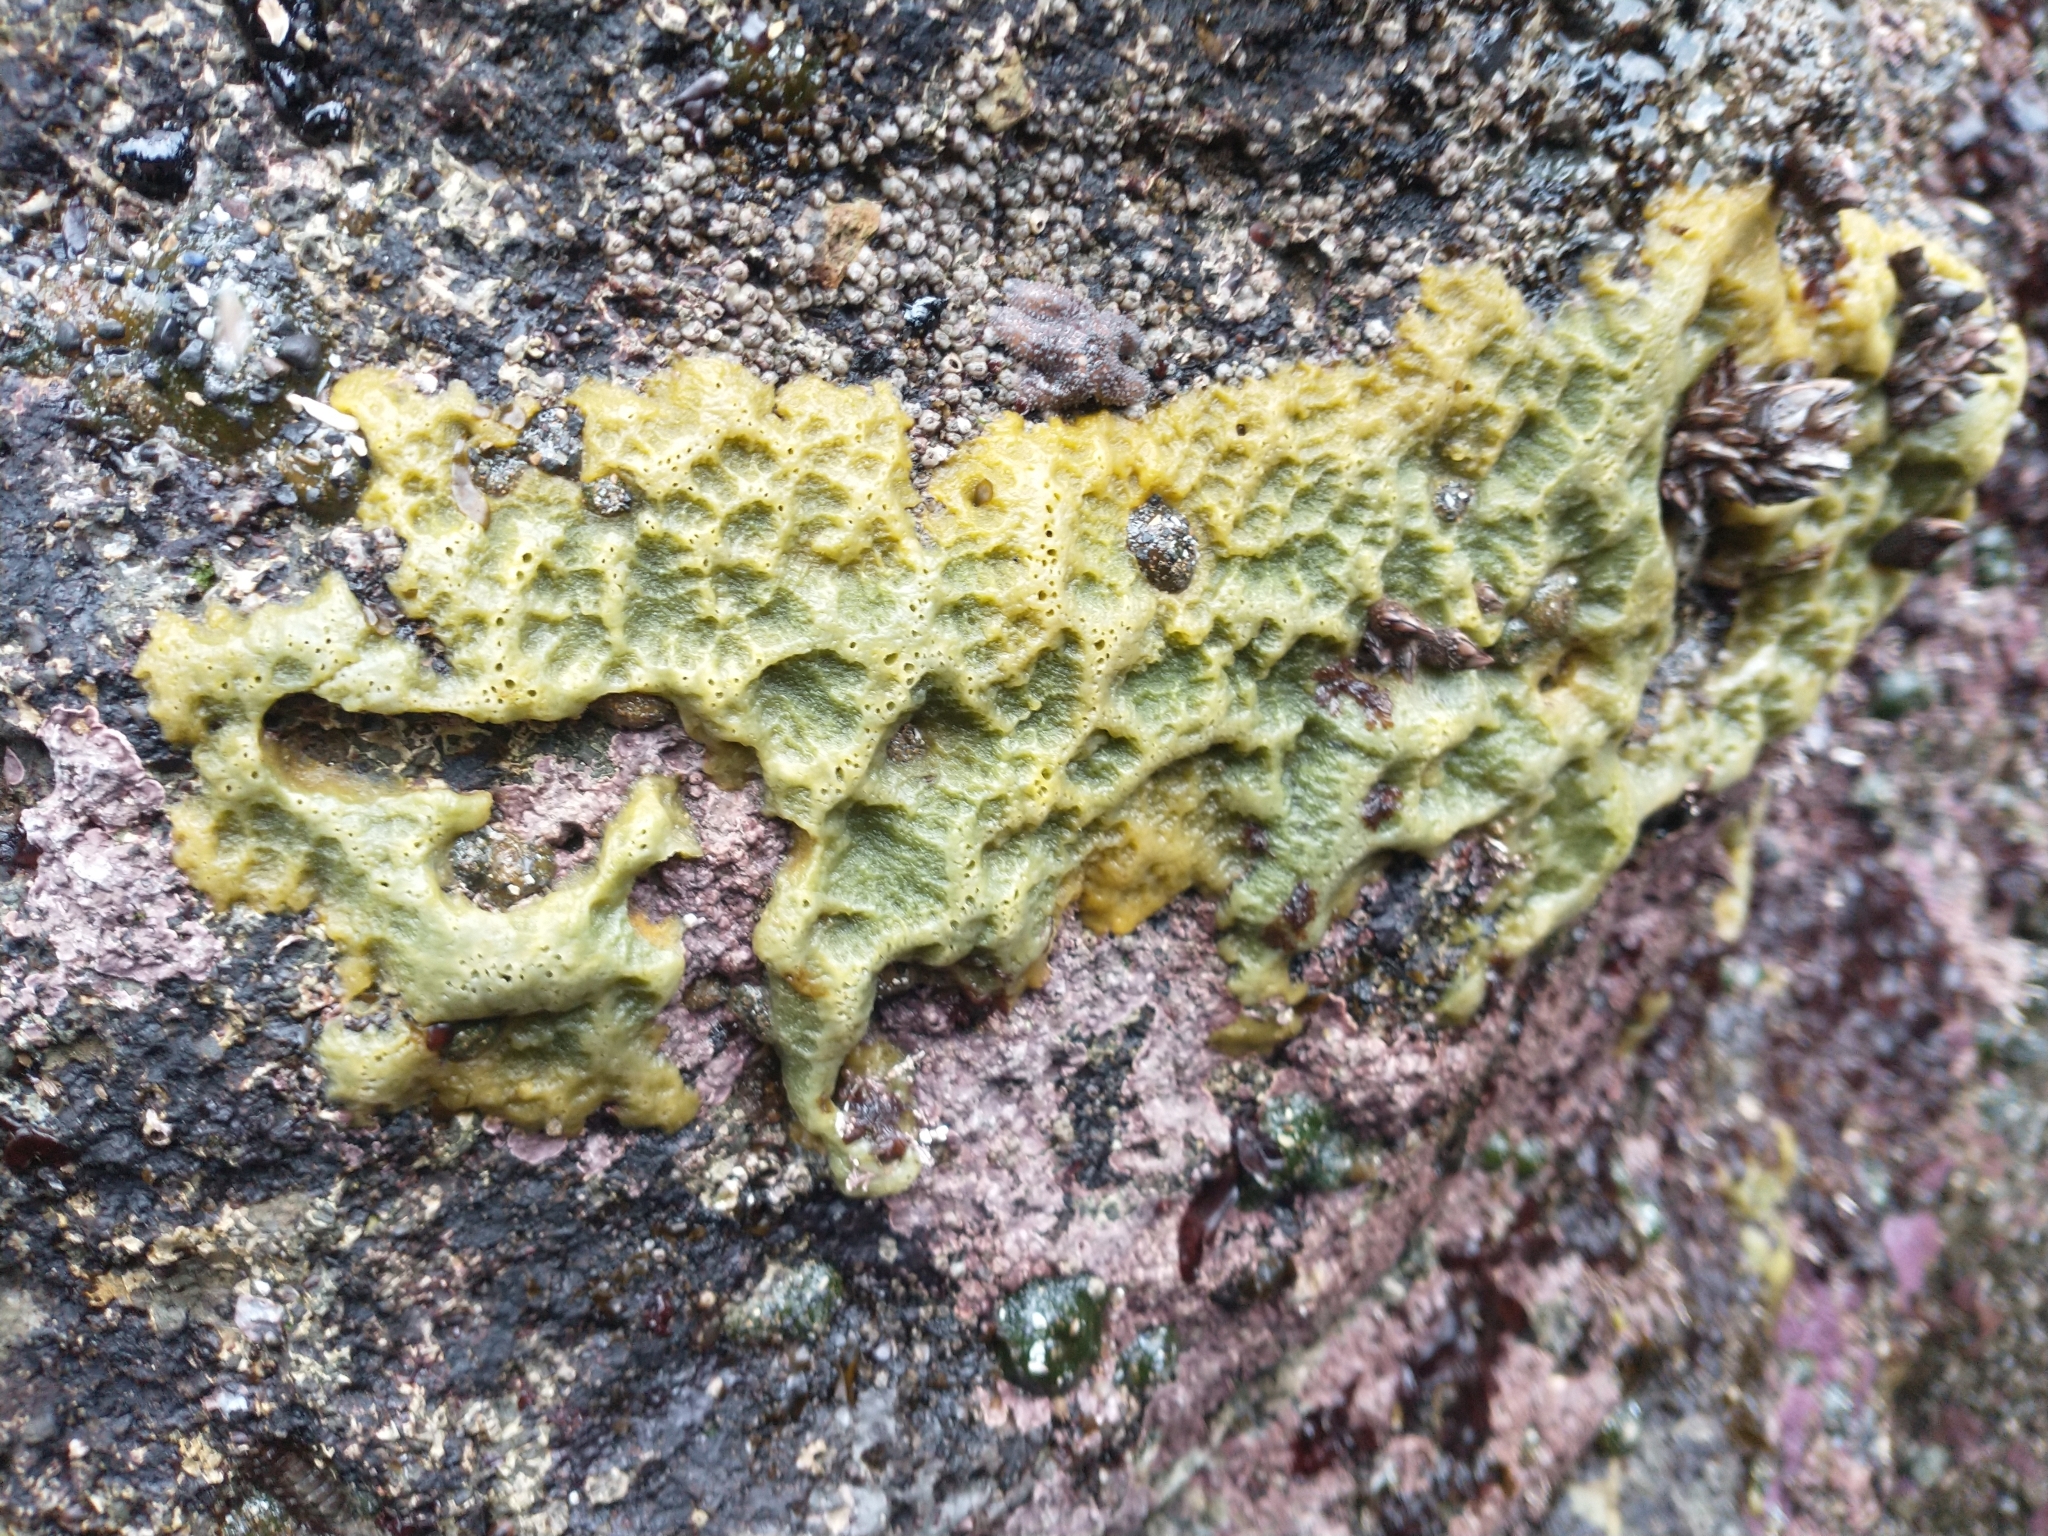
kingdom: Animalia
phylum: Porifera
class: Demospongiae
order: Suberitida
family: Halichondriidae
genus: Halichondria
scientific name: Halichondria panicea
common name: Breadcrumb sponge
